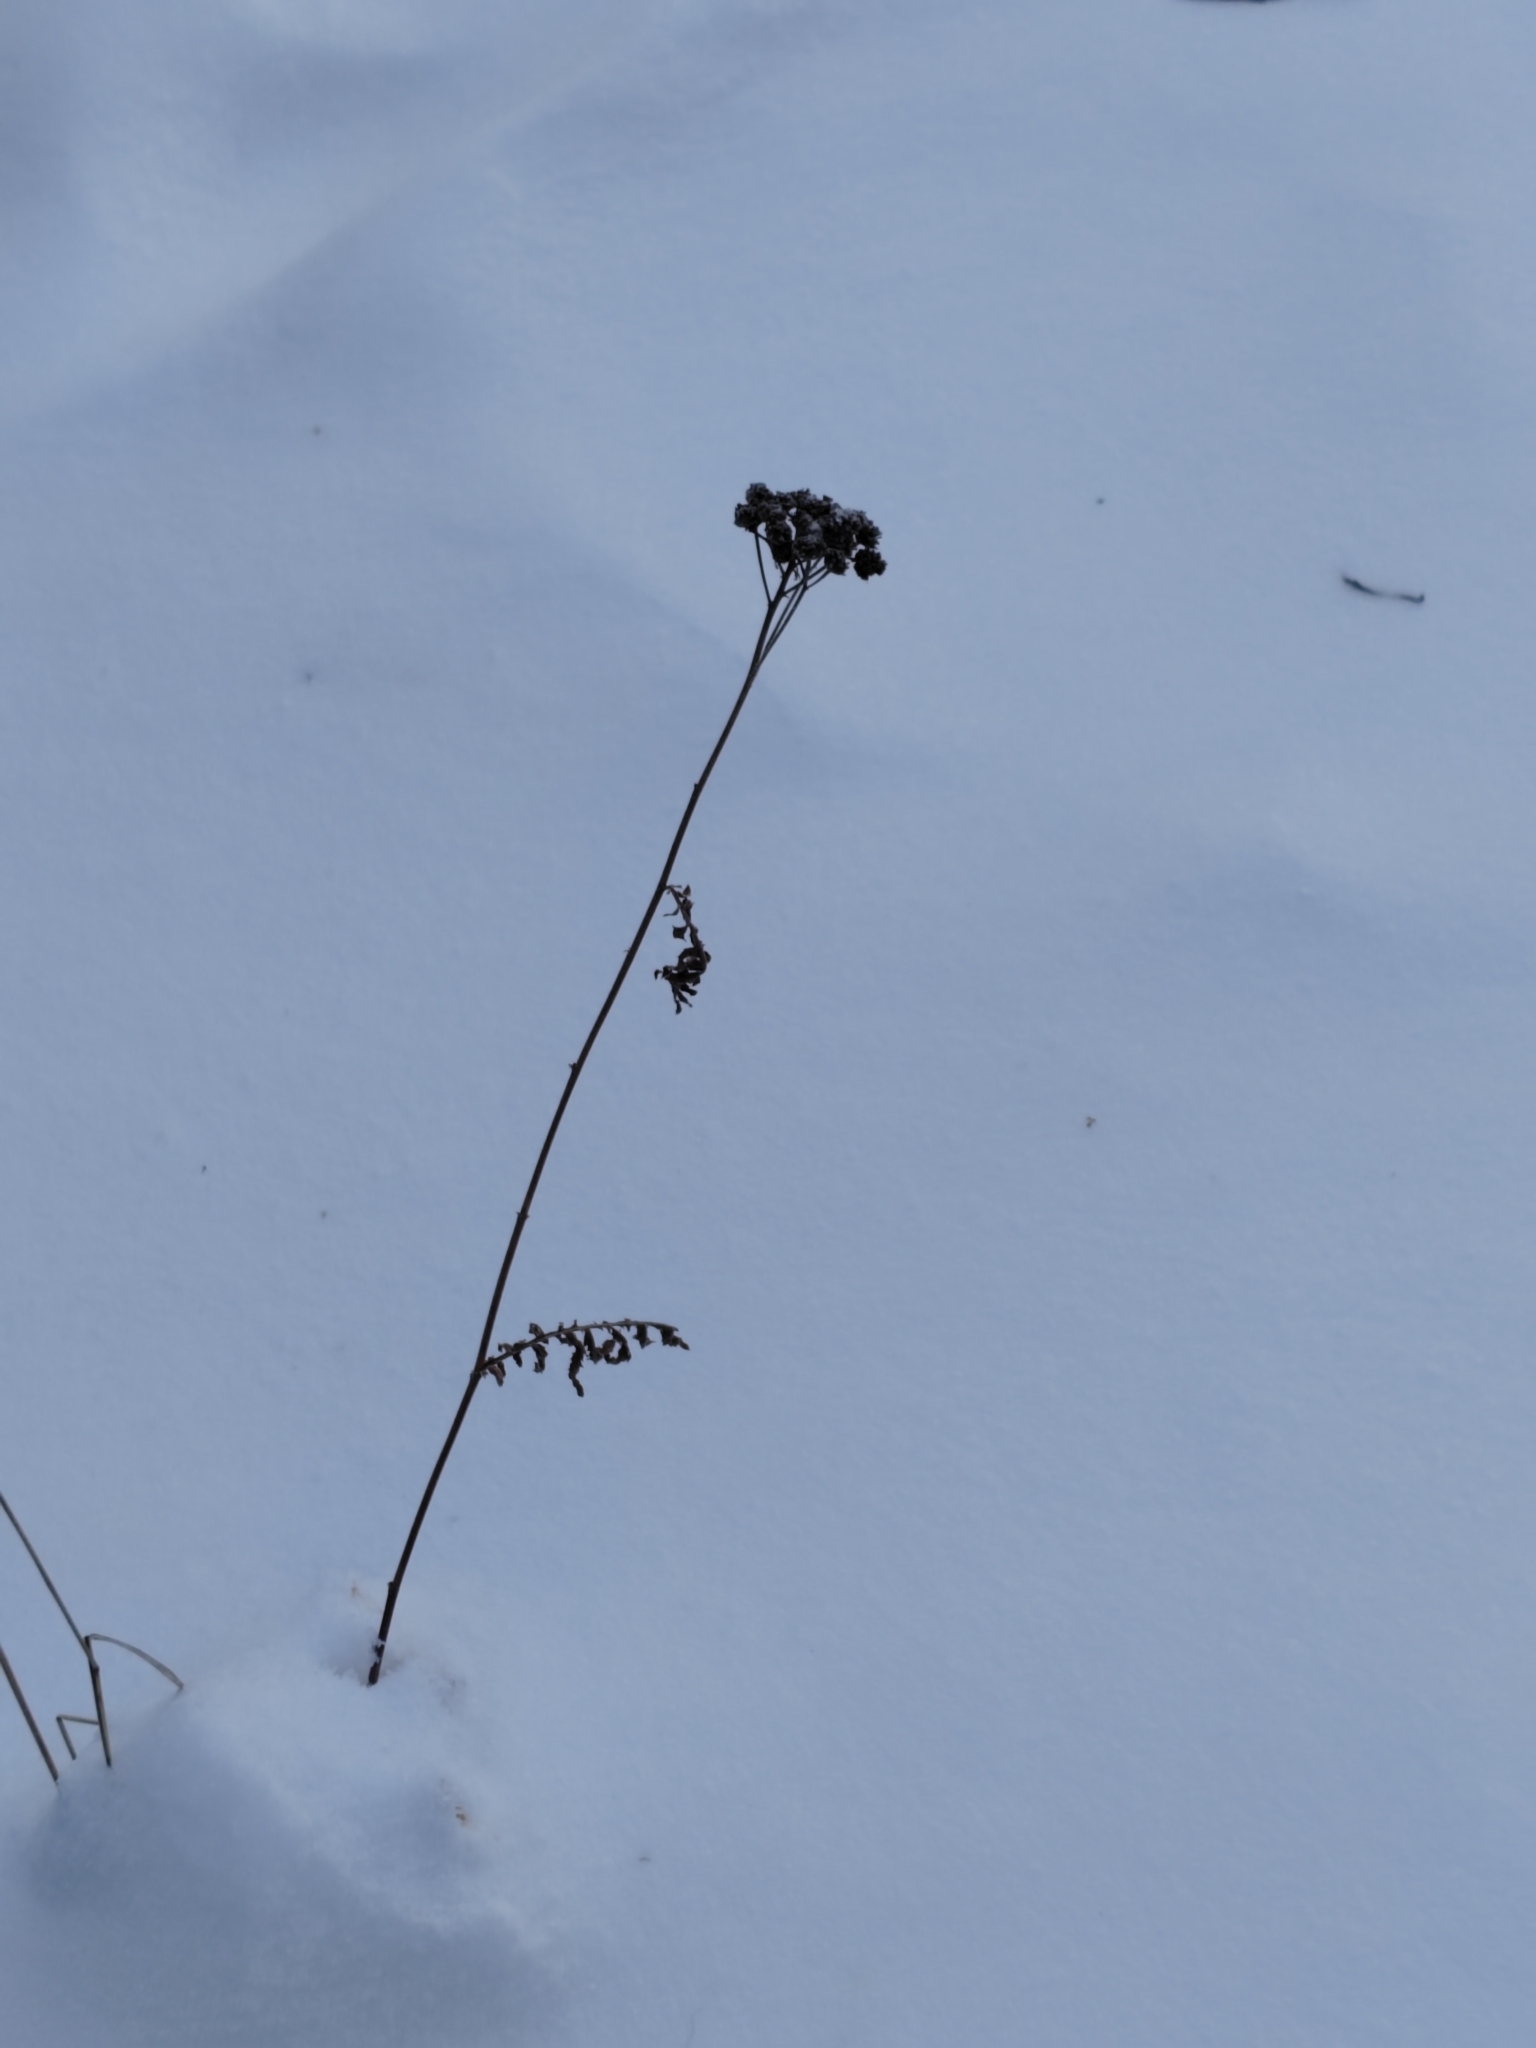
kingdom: Plantae
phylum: Tracheophyta
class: Magnoliopsida
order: Asterales
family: Asteraceae
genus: Tanacetum
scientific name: Tanacetum vulgare
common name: Common tansy
